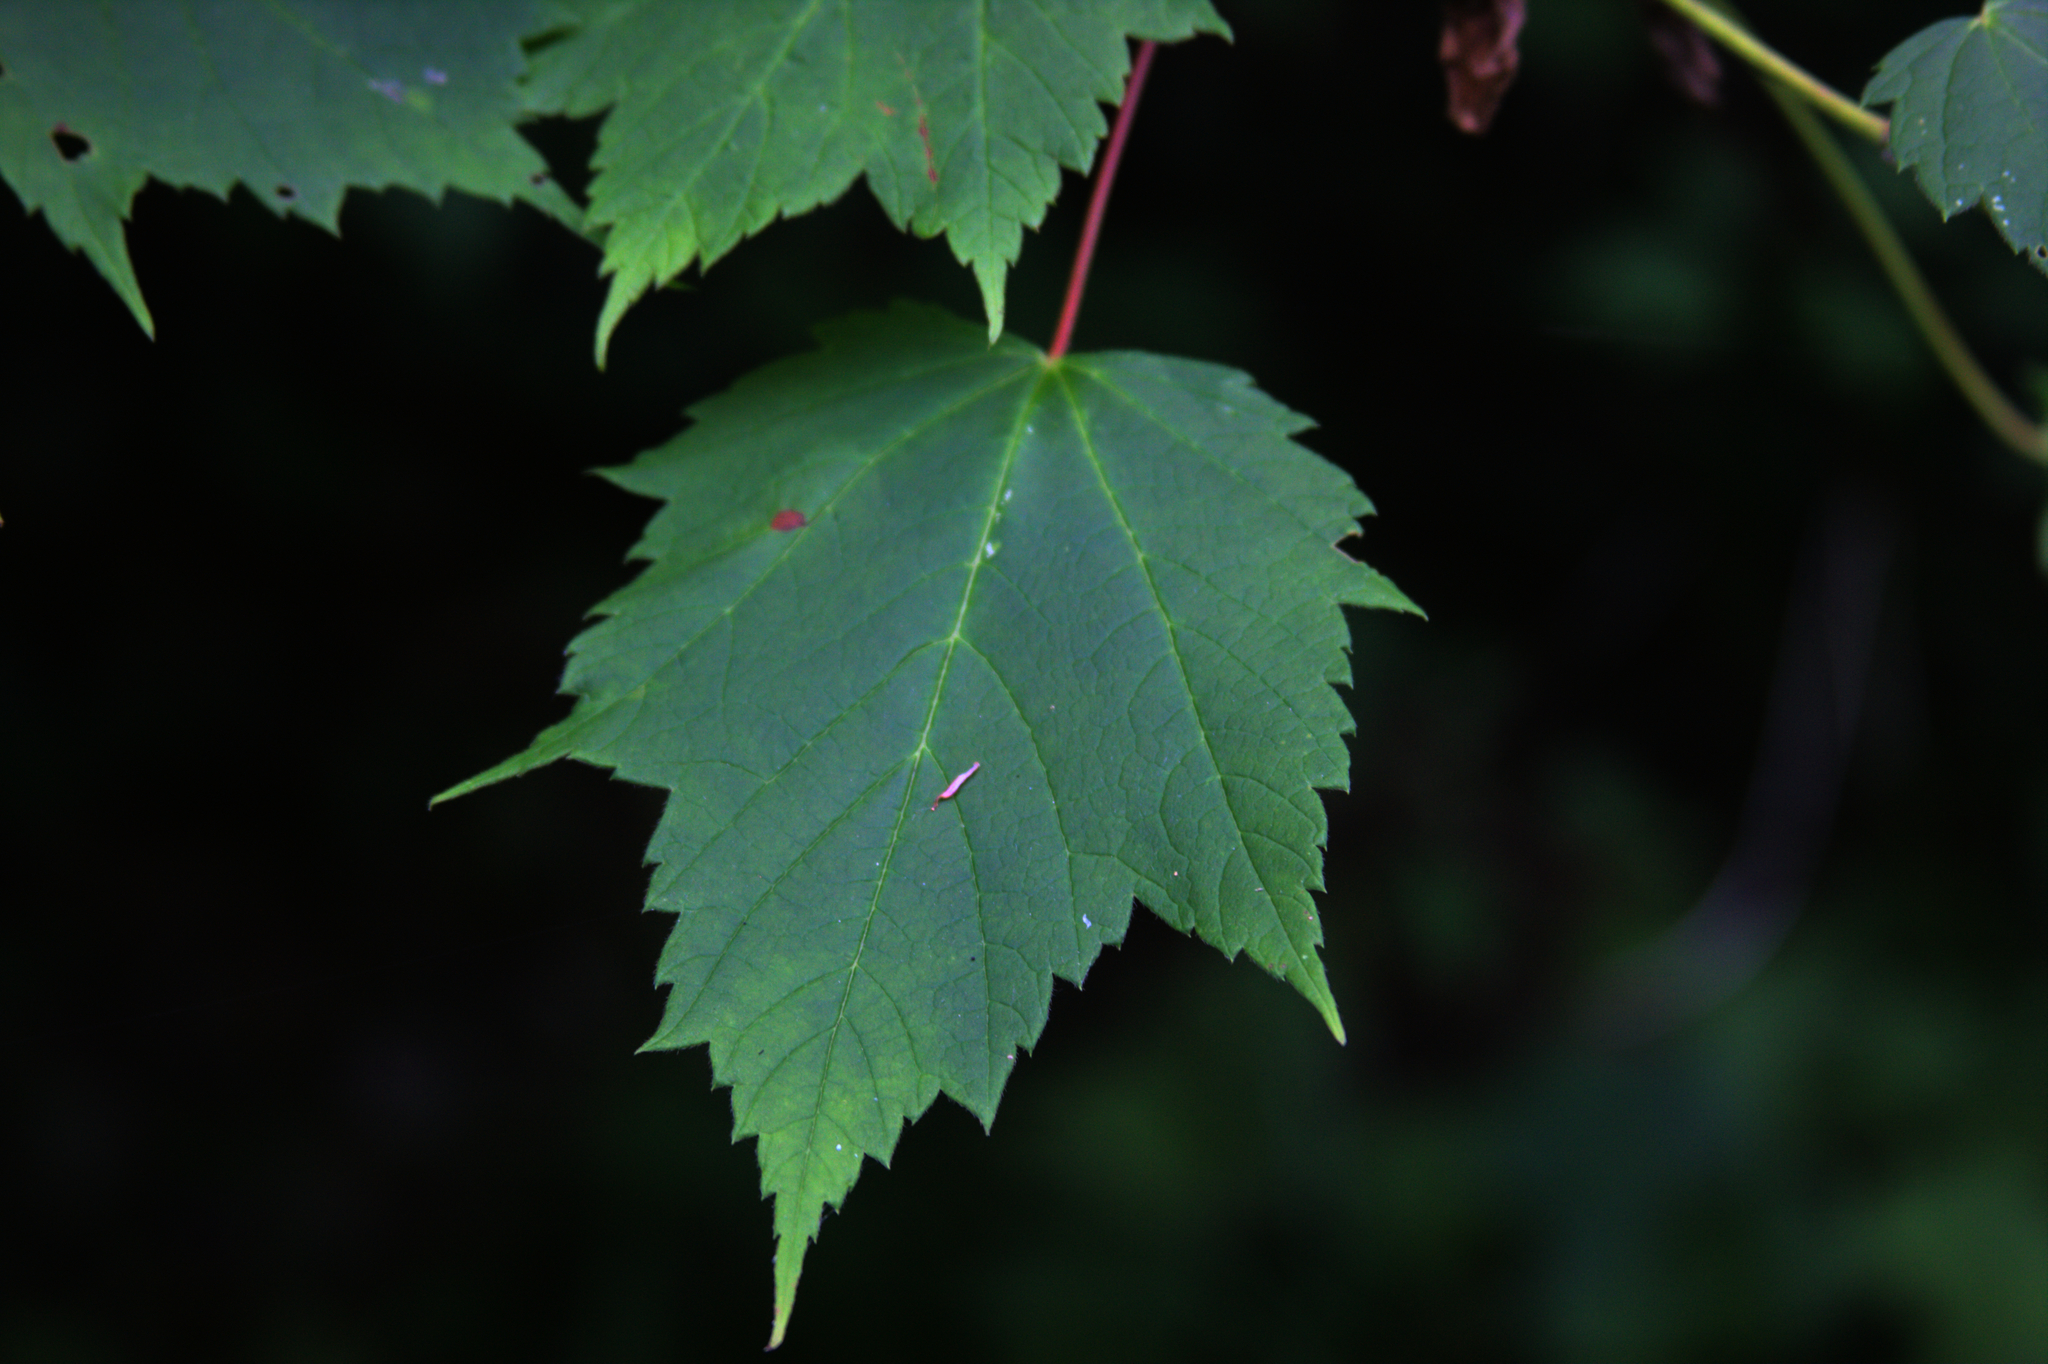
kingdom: Plantae
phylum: Tracheophyta
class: Magnoliopsida
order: Sapindales
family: Sapindaceae
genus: Acer
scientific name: Acer rubrum
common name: Red maple
